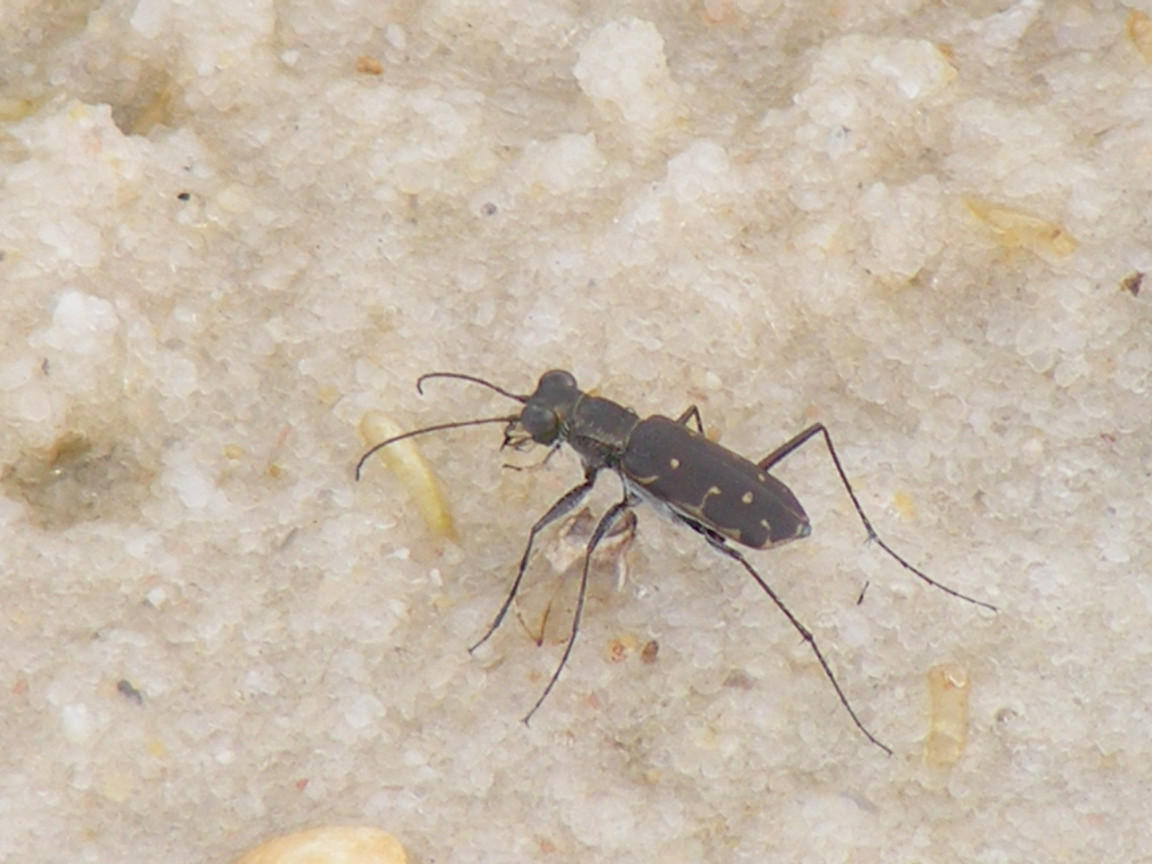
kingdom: Animalia
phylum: Arthropoda
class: Insecta
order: Coleoptera
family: Carabidae
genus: Myriochila
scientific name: Myriochila melancholica
